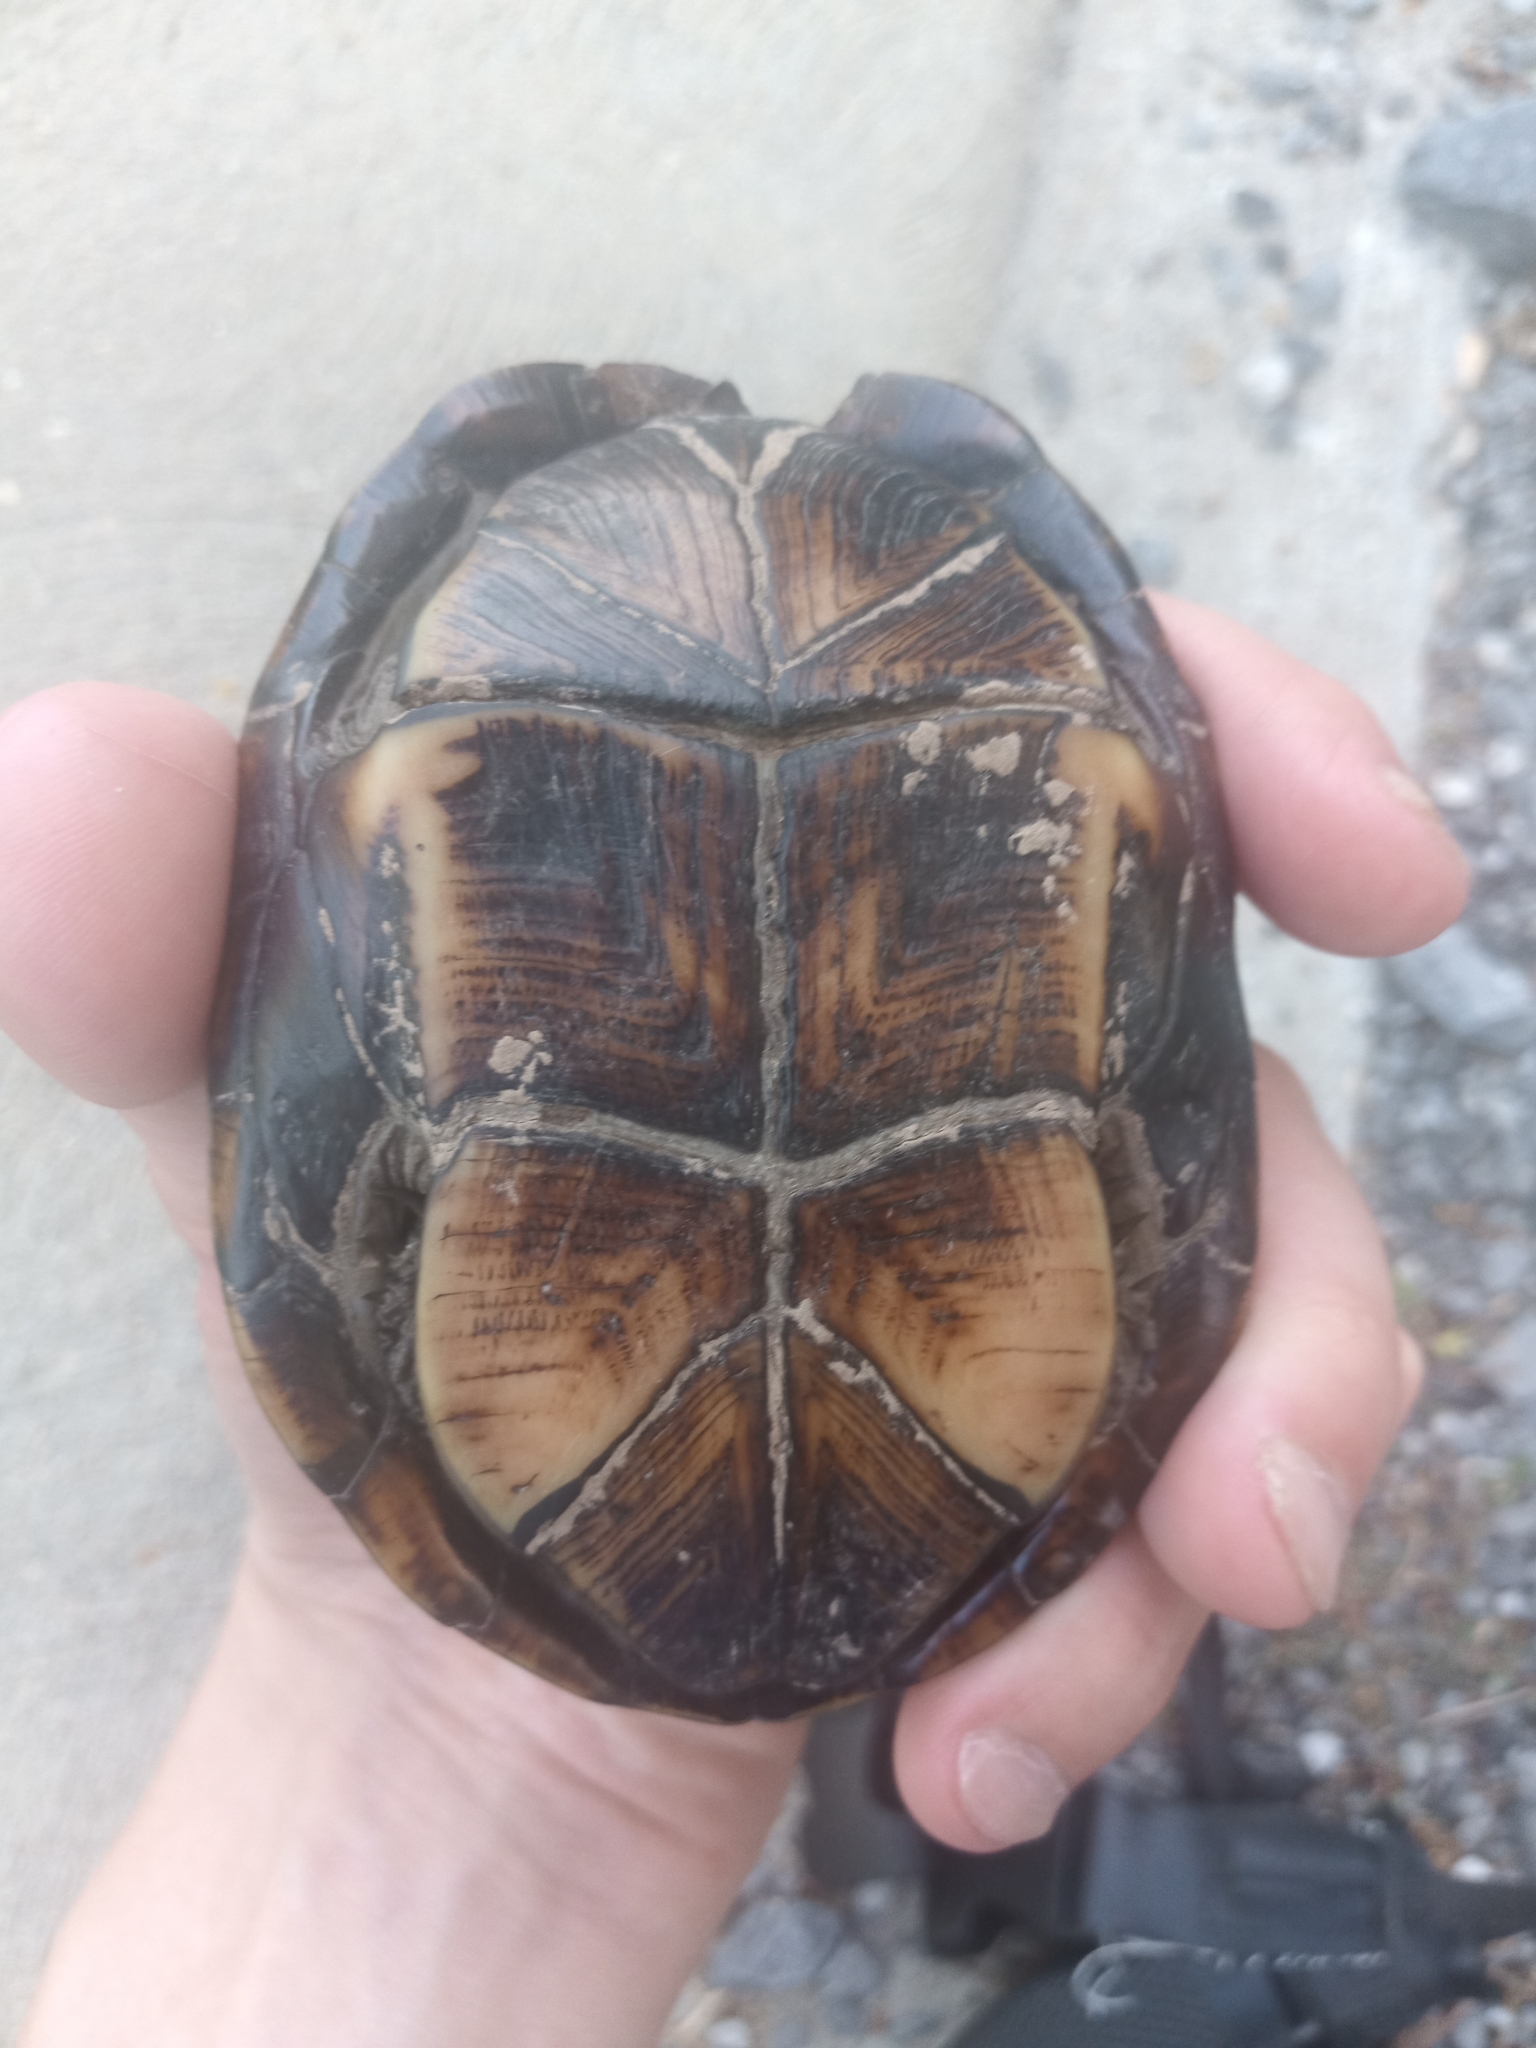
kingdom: Animalia
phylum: Chordata
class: Testudines
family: Kinosternidae
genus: Kinosternon
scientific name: Kinosternon subrubrum
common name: Eastern mud turtle
